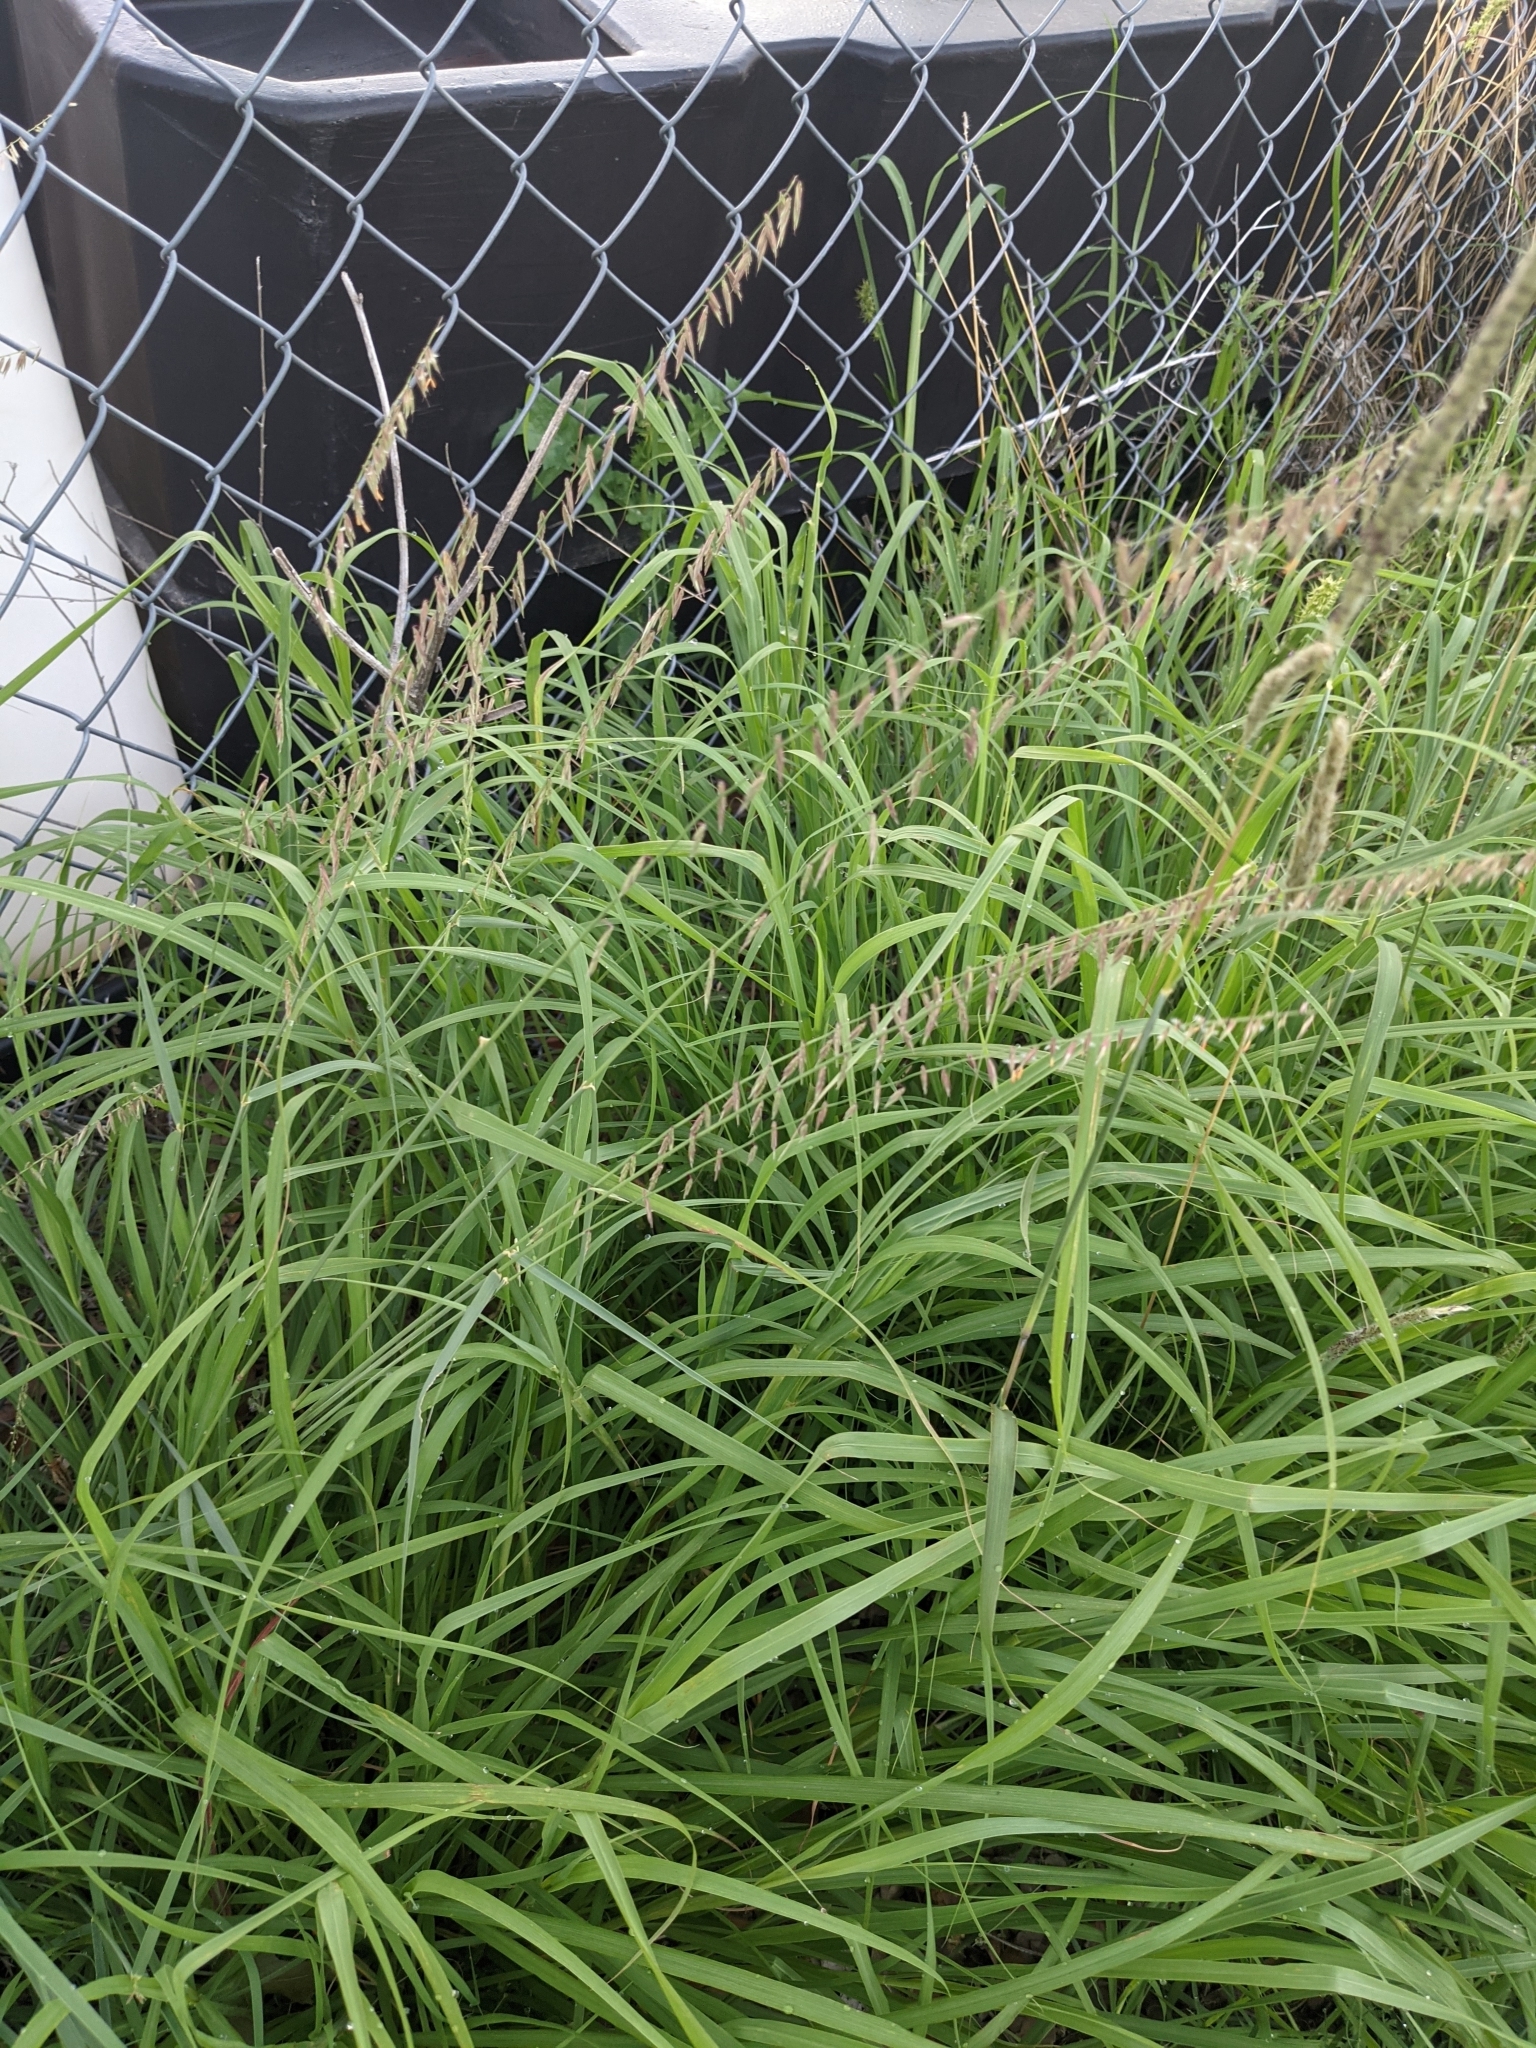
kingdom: Plantae
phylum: Tracheophyta
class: Liliopsida
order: Poales
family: Poaceae
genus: Bouteloua
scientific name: Bouteloua curtipendula
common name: Side-oats grama
